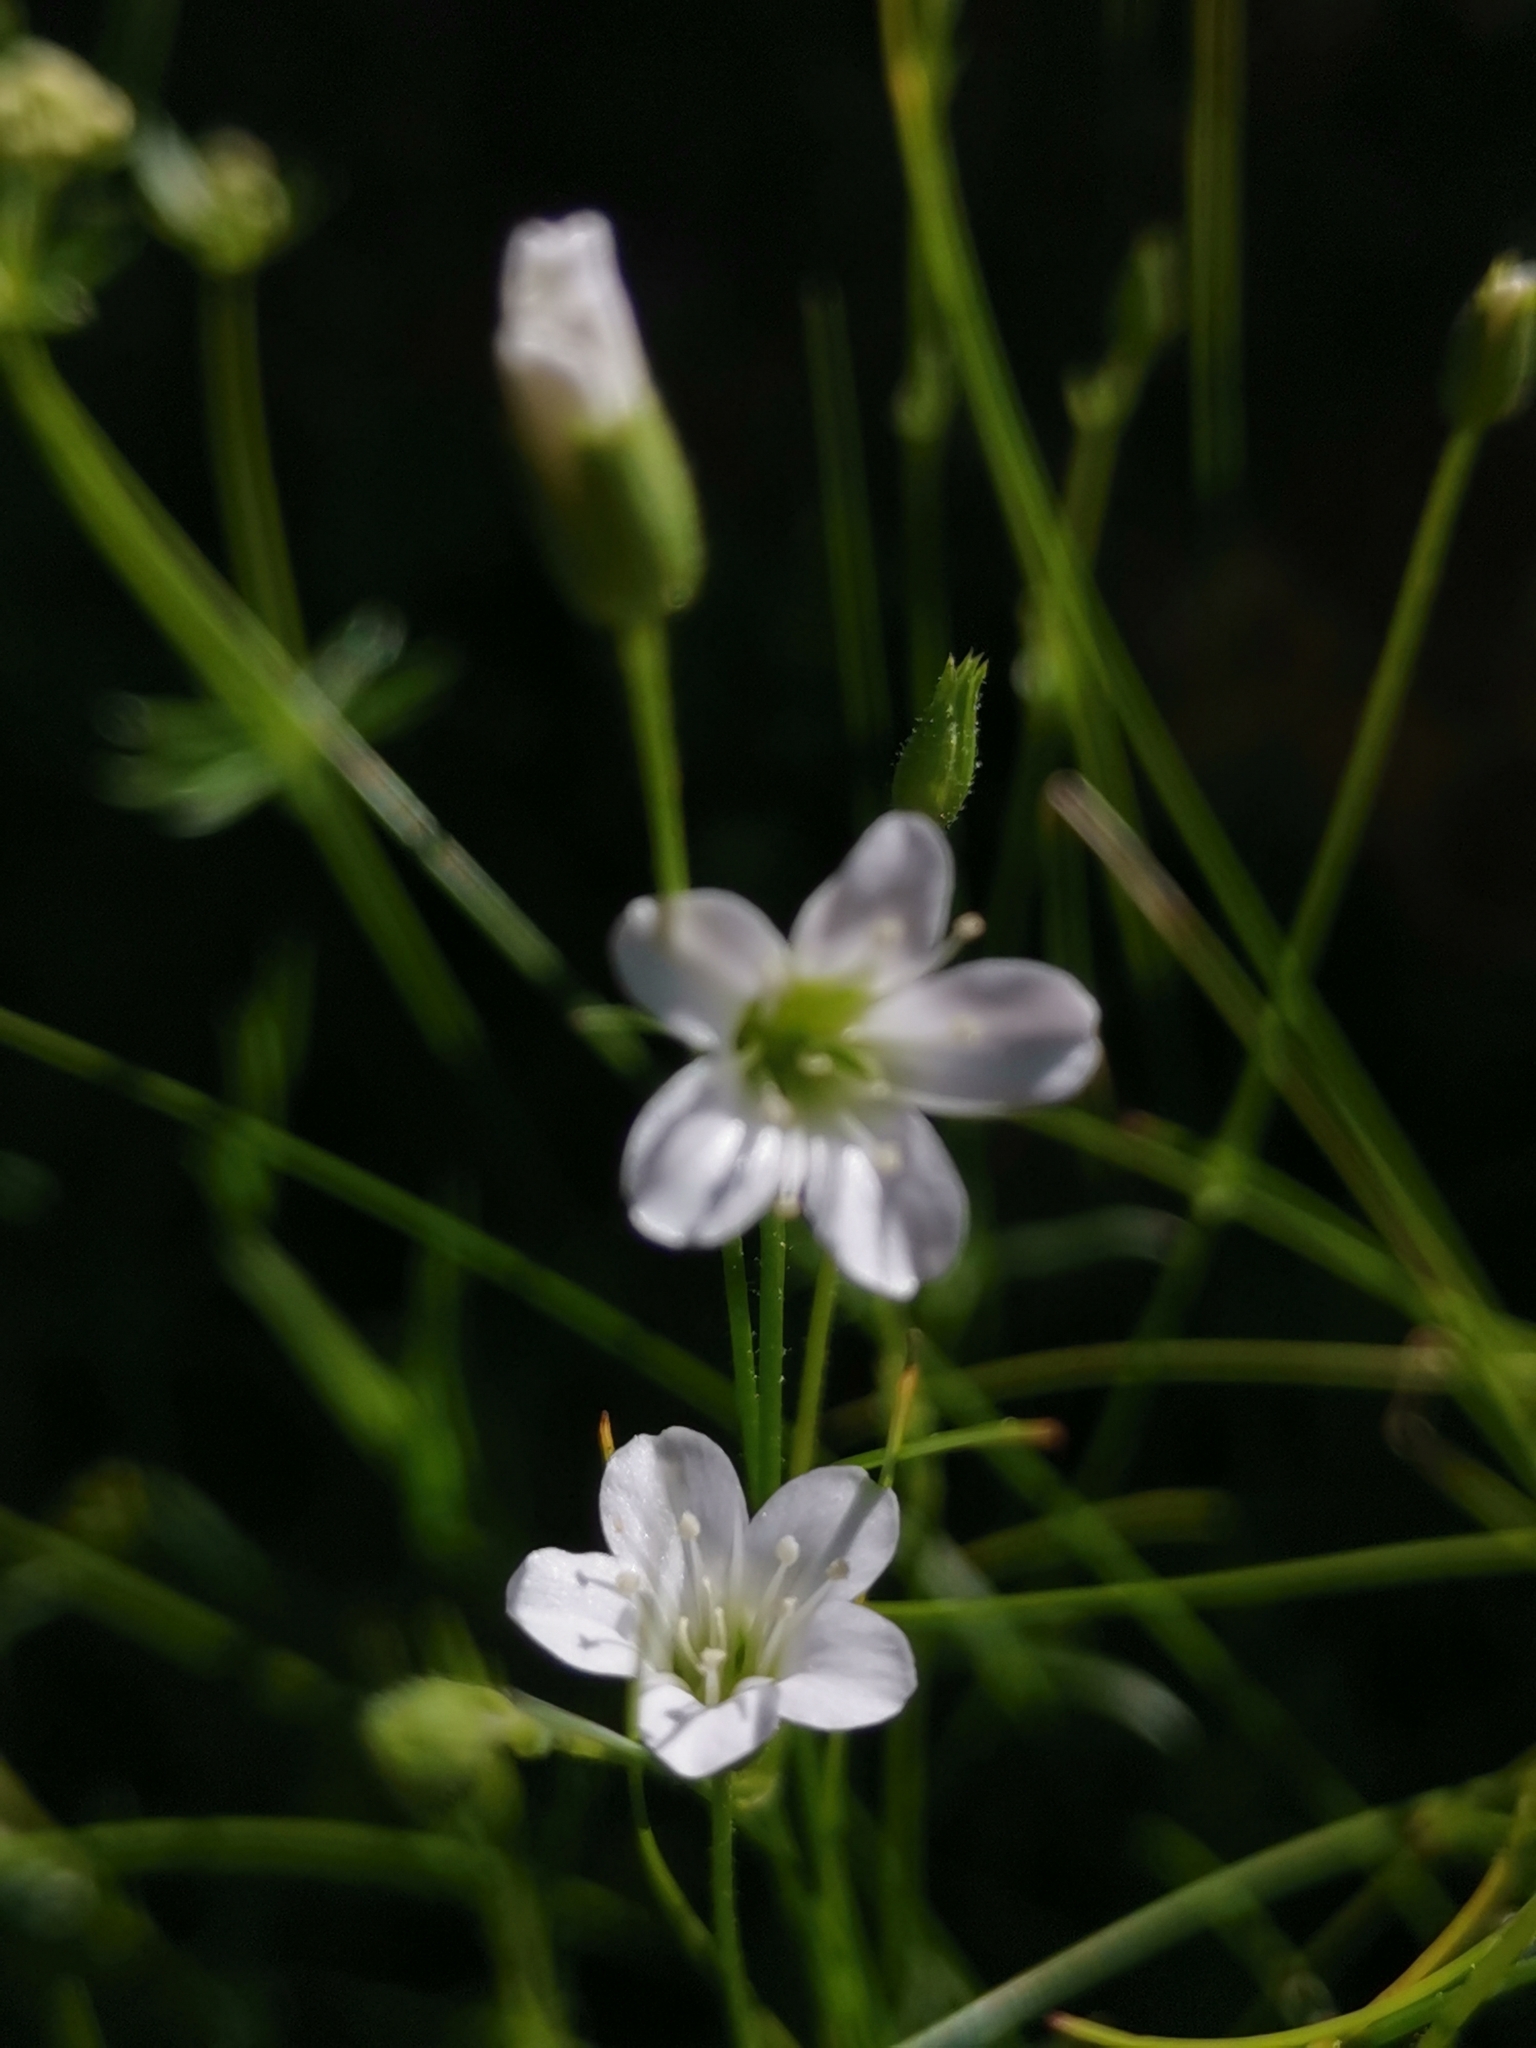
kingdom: Plantae
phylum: Tracheophyta
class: Magnoliopsida
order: Caryophyllales
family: Caryophyllaceae
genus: Sabulina
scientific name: Sabulina austriaca
